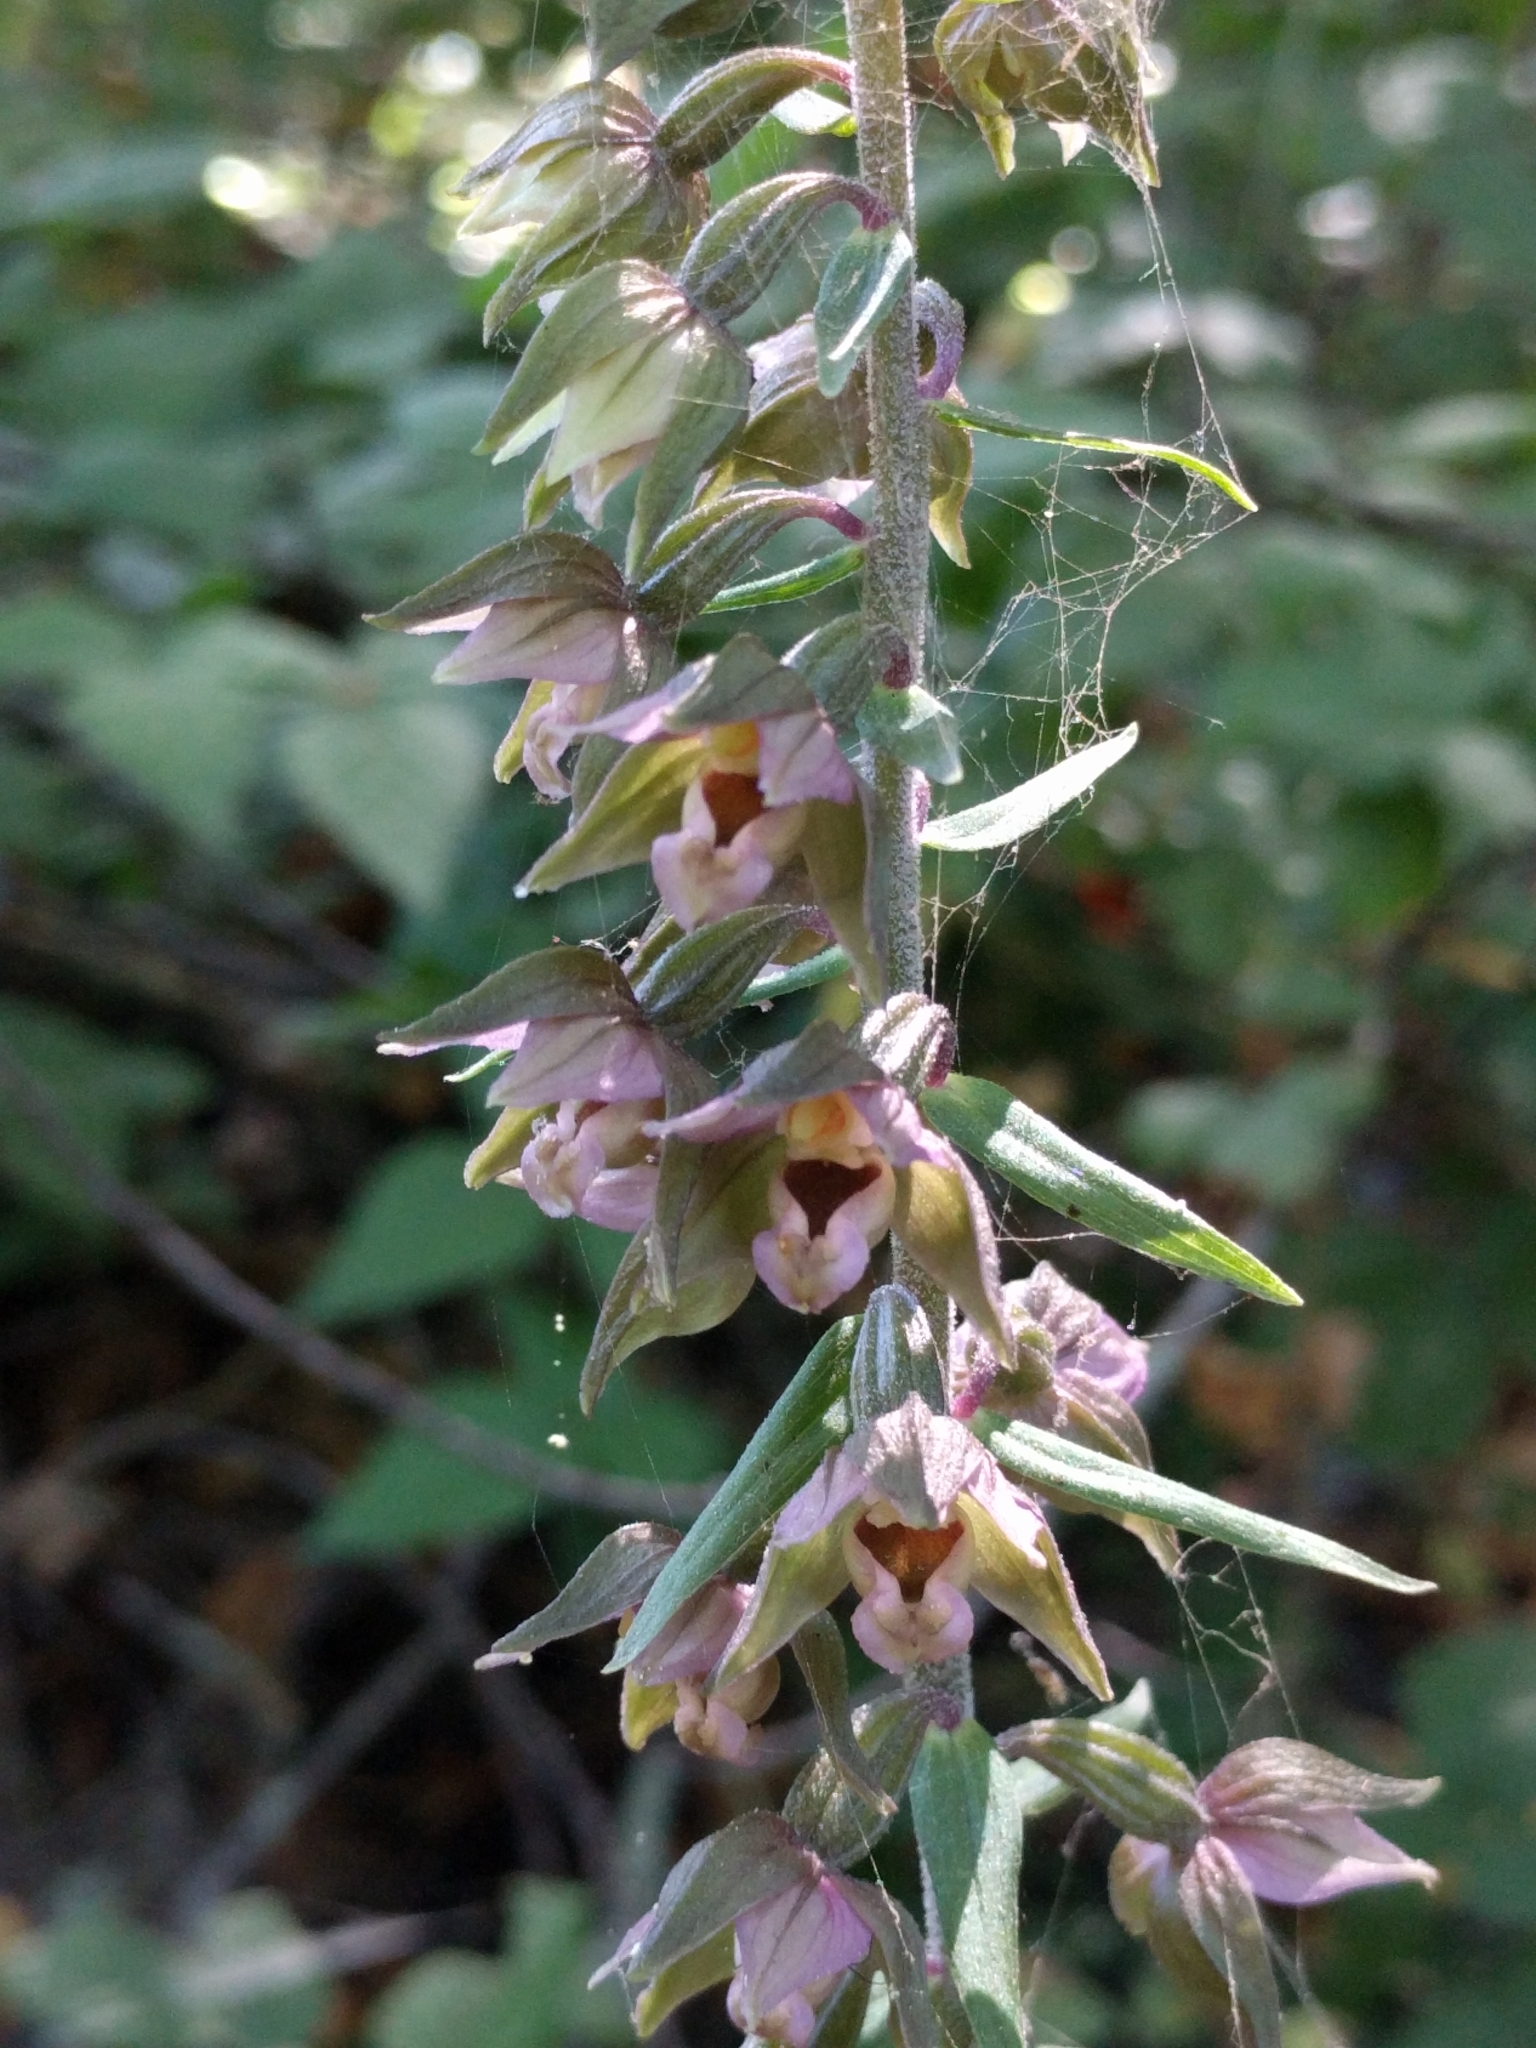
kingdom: Plantae
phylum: Tracheophyta
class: Liliopsida
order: Asparagales
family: Orchidaceae
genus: Epipactis
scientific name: Epipactis helleborine
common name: Broad-leaved helleborine
